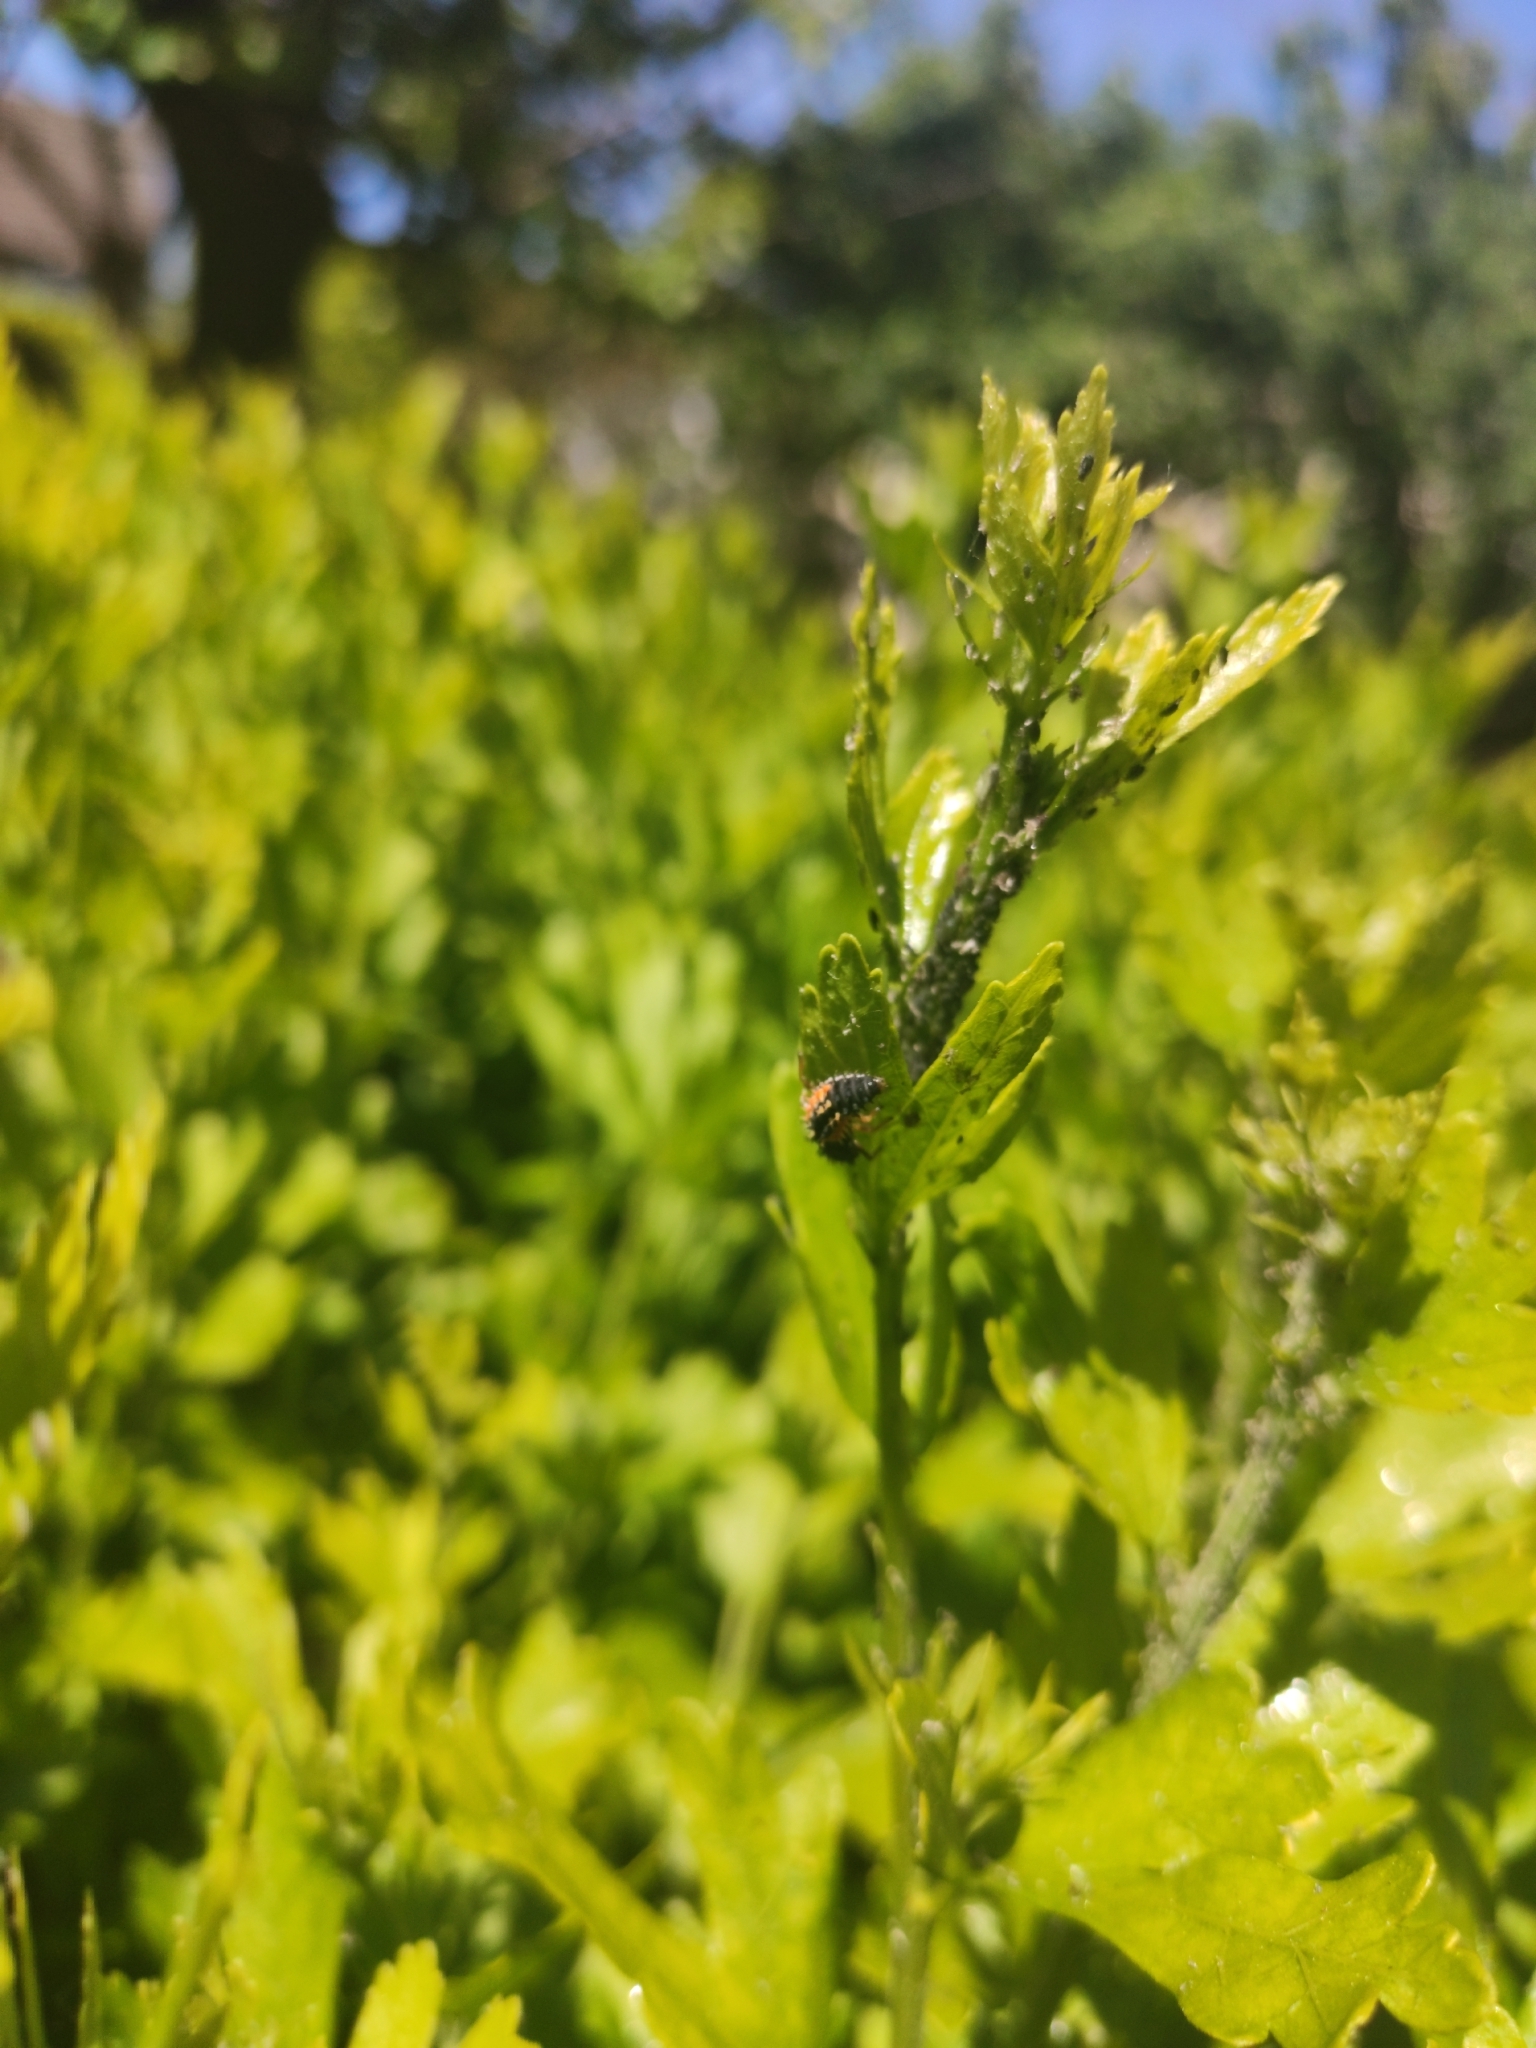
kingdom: Animalia
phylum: Arthropoda
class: Insecta
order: Coleoptera
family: Coccinellidae
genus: Harmonia
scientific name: Harmonia axyridis
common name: Harlequin ladybird
